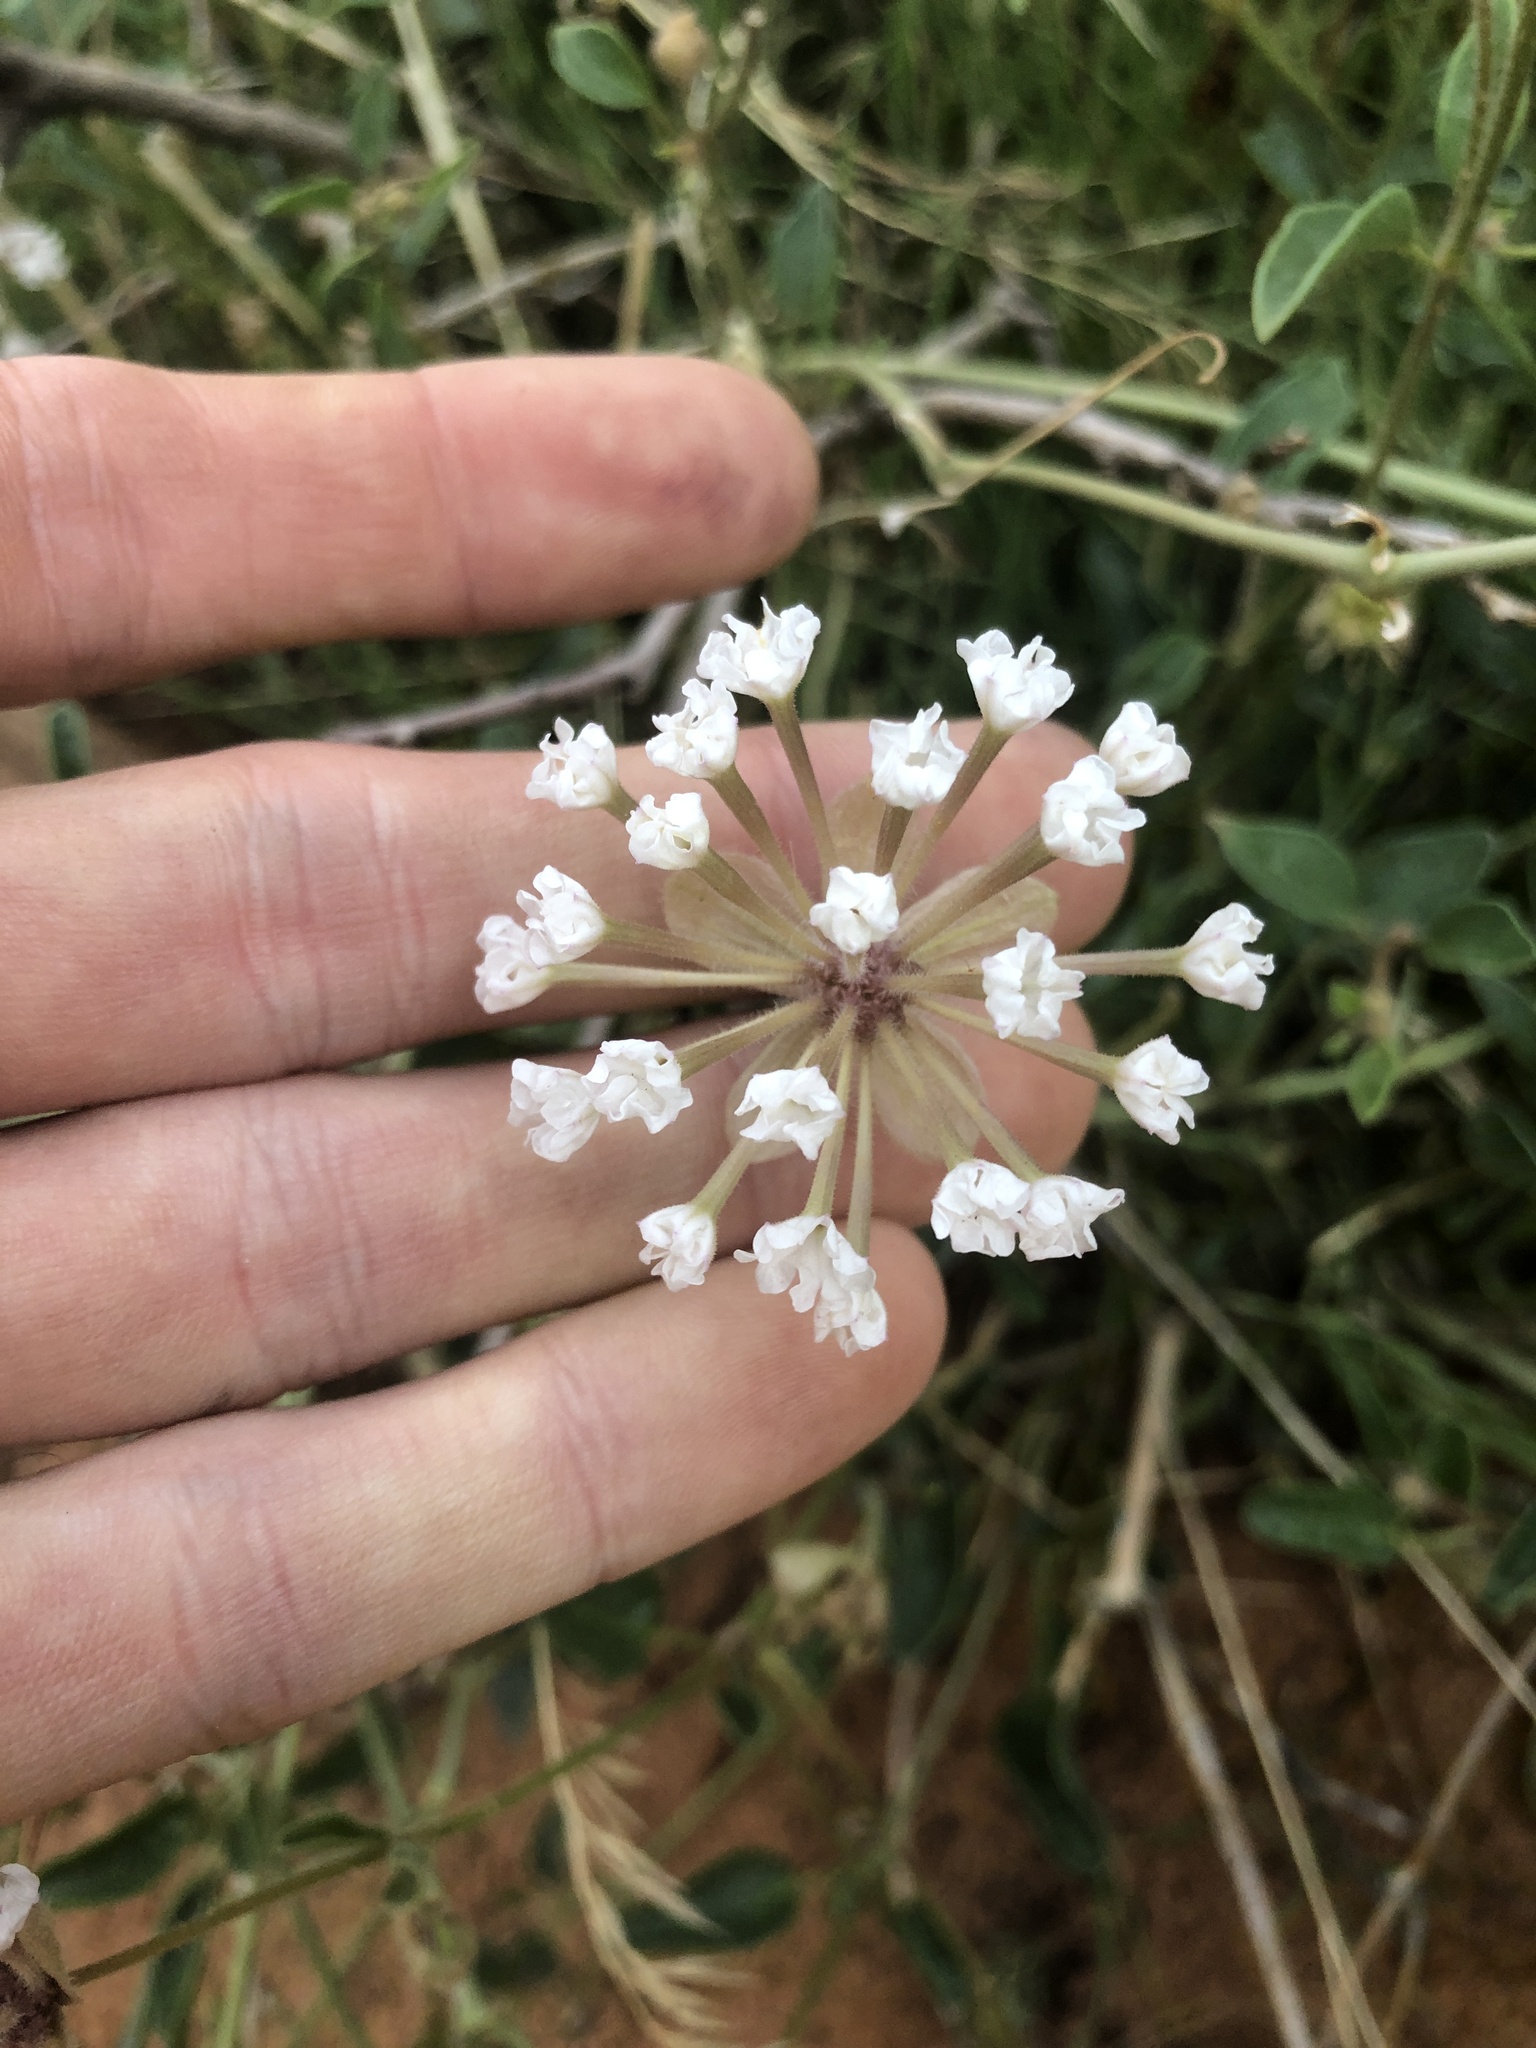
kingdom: Plantae
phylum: Tracheophyta
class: Magnoliopsida
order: Caryophyllales
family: Nyctaginaceae
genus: Abronia
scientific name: Abronia elliptica
